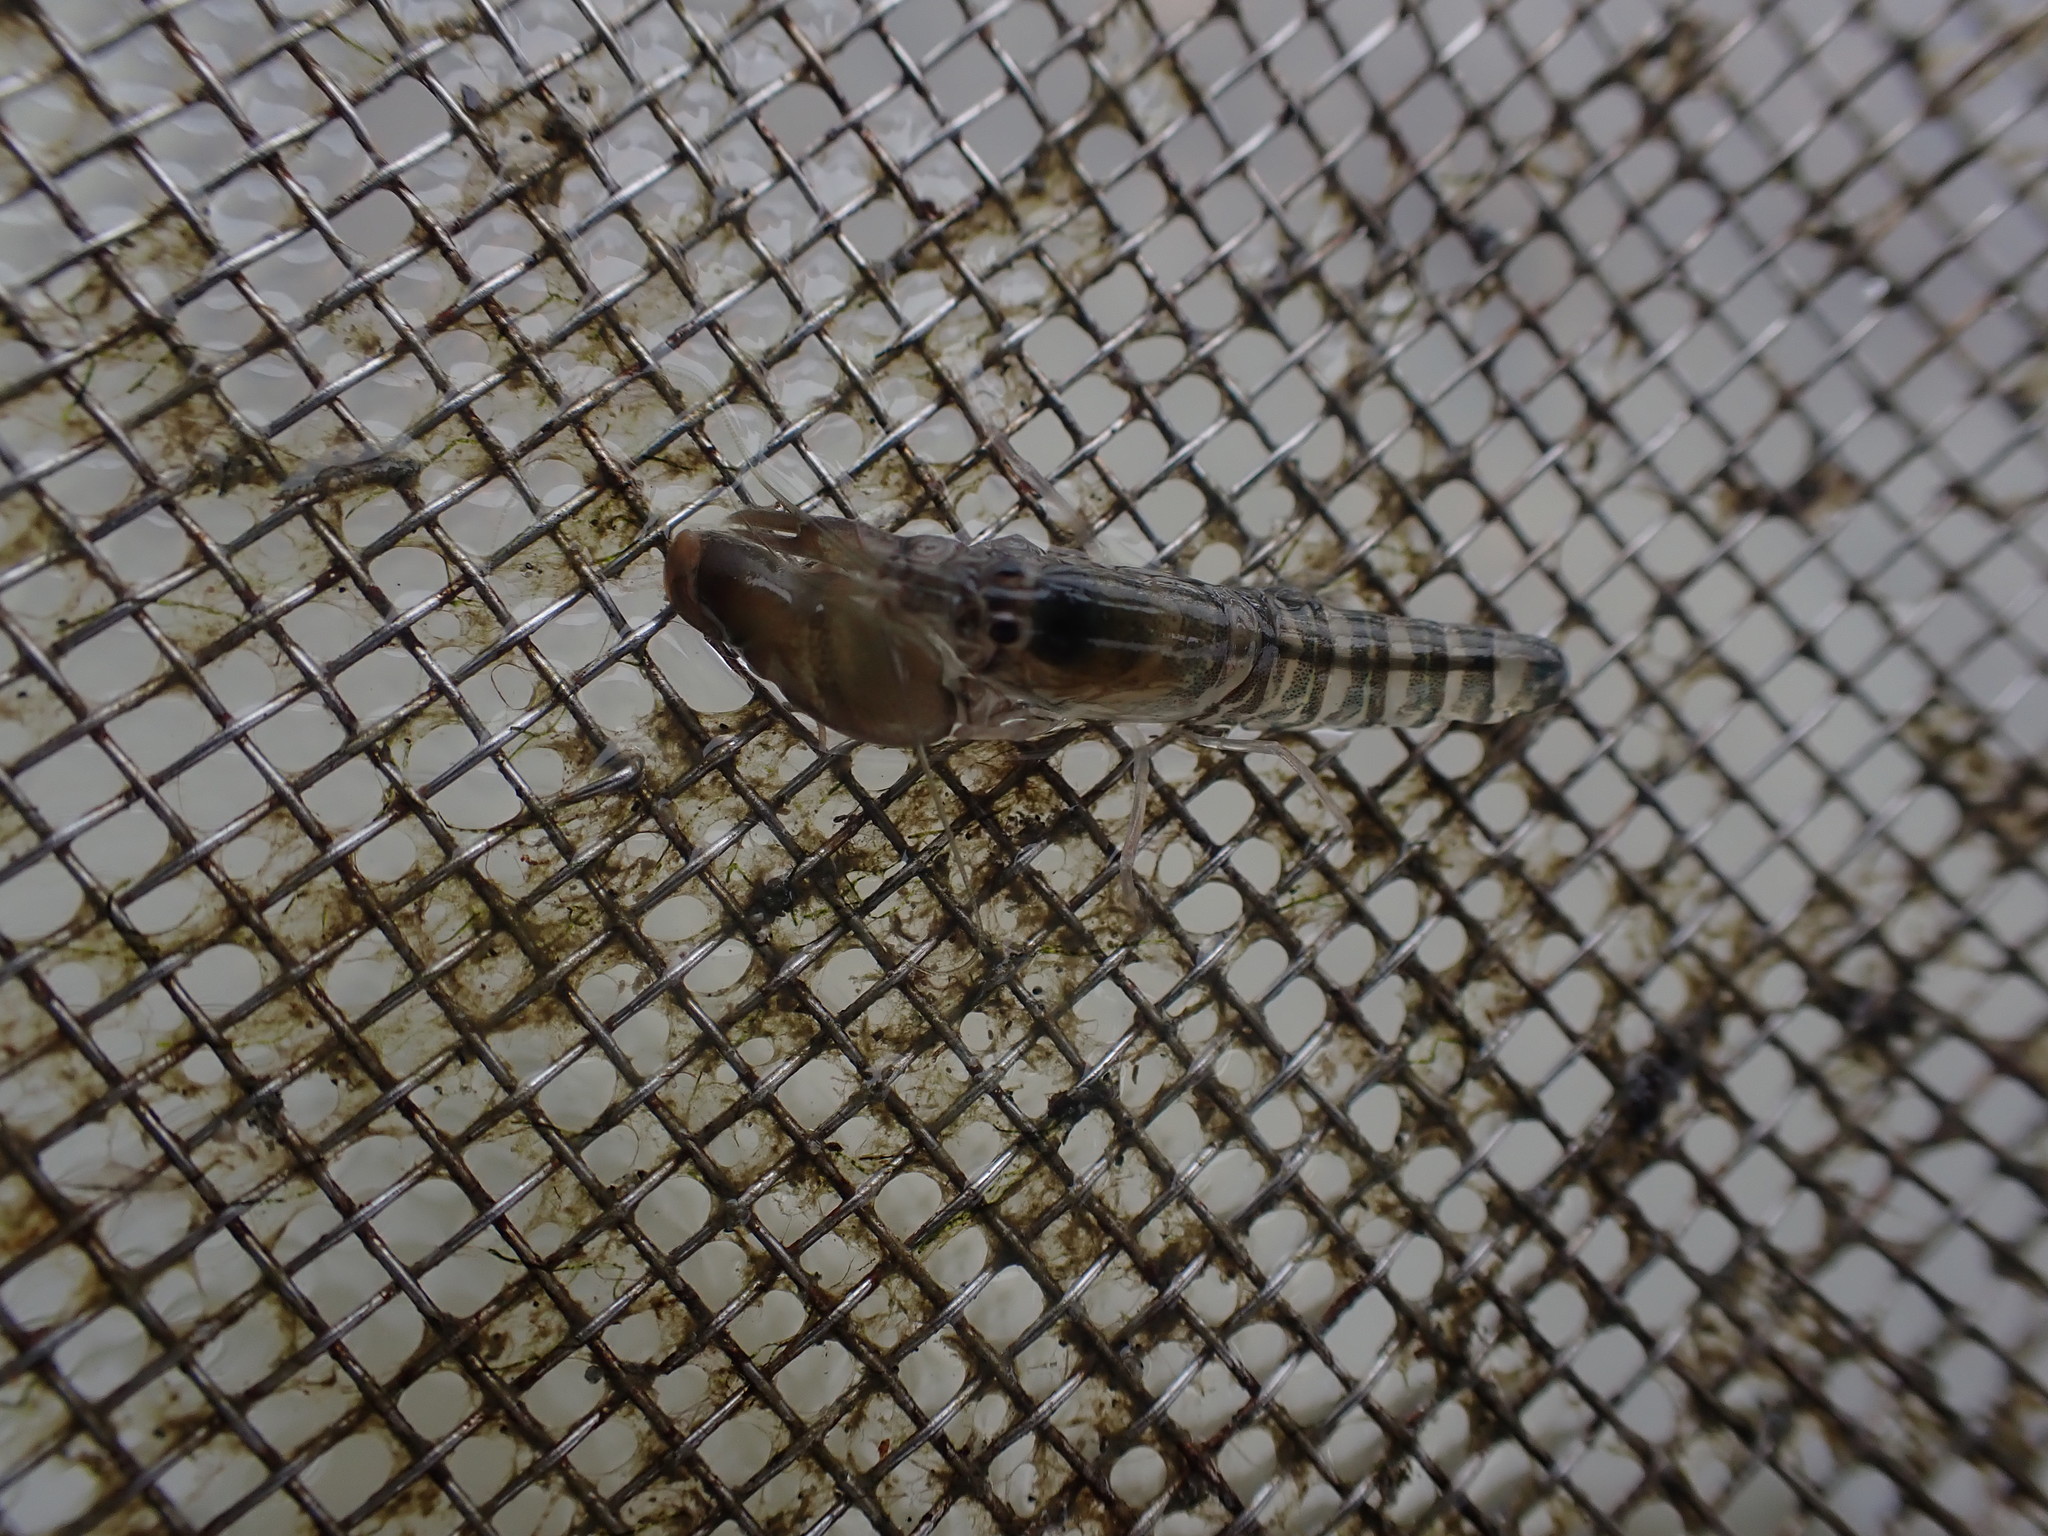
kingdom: Animalia
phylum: Arthropoda
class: Malacostraca
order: Decapoda
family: Alpheidae
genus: Alpheus
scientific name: Alpheus richardsoni
